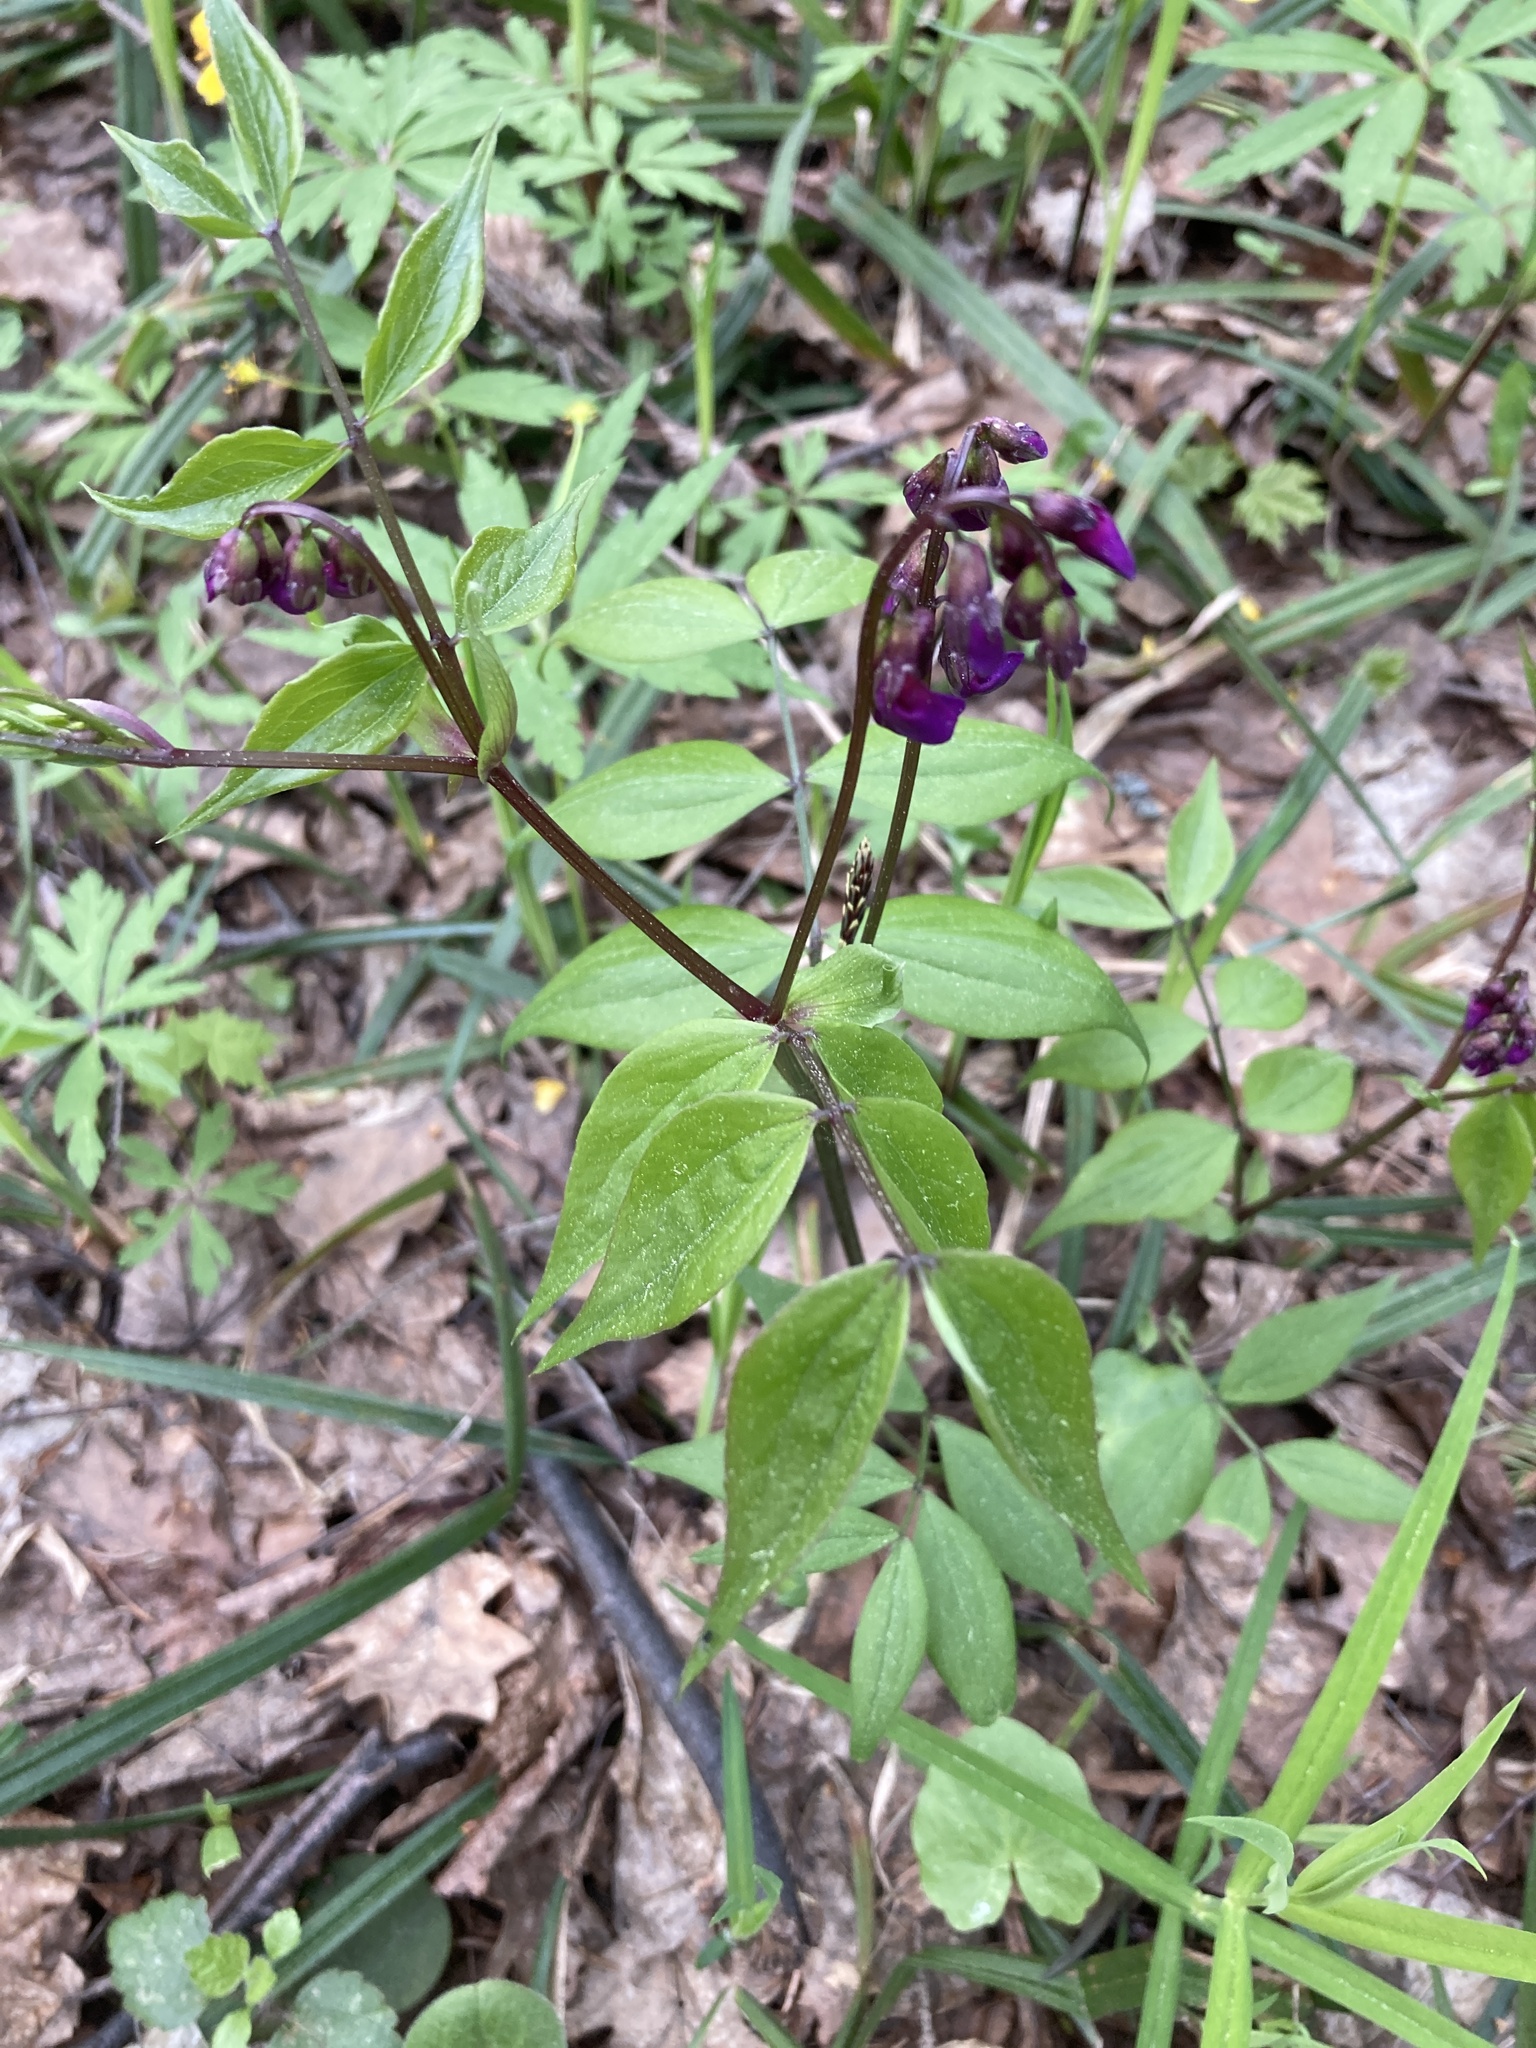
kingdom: Plantae
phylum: Tracheophyta
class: Magnoliopsida
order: Fabales
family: Fabaceae
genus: Lathyrus
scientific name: Lathyrus vernus
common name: Spring pea
